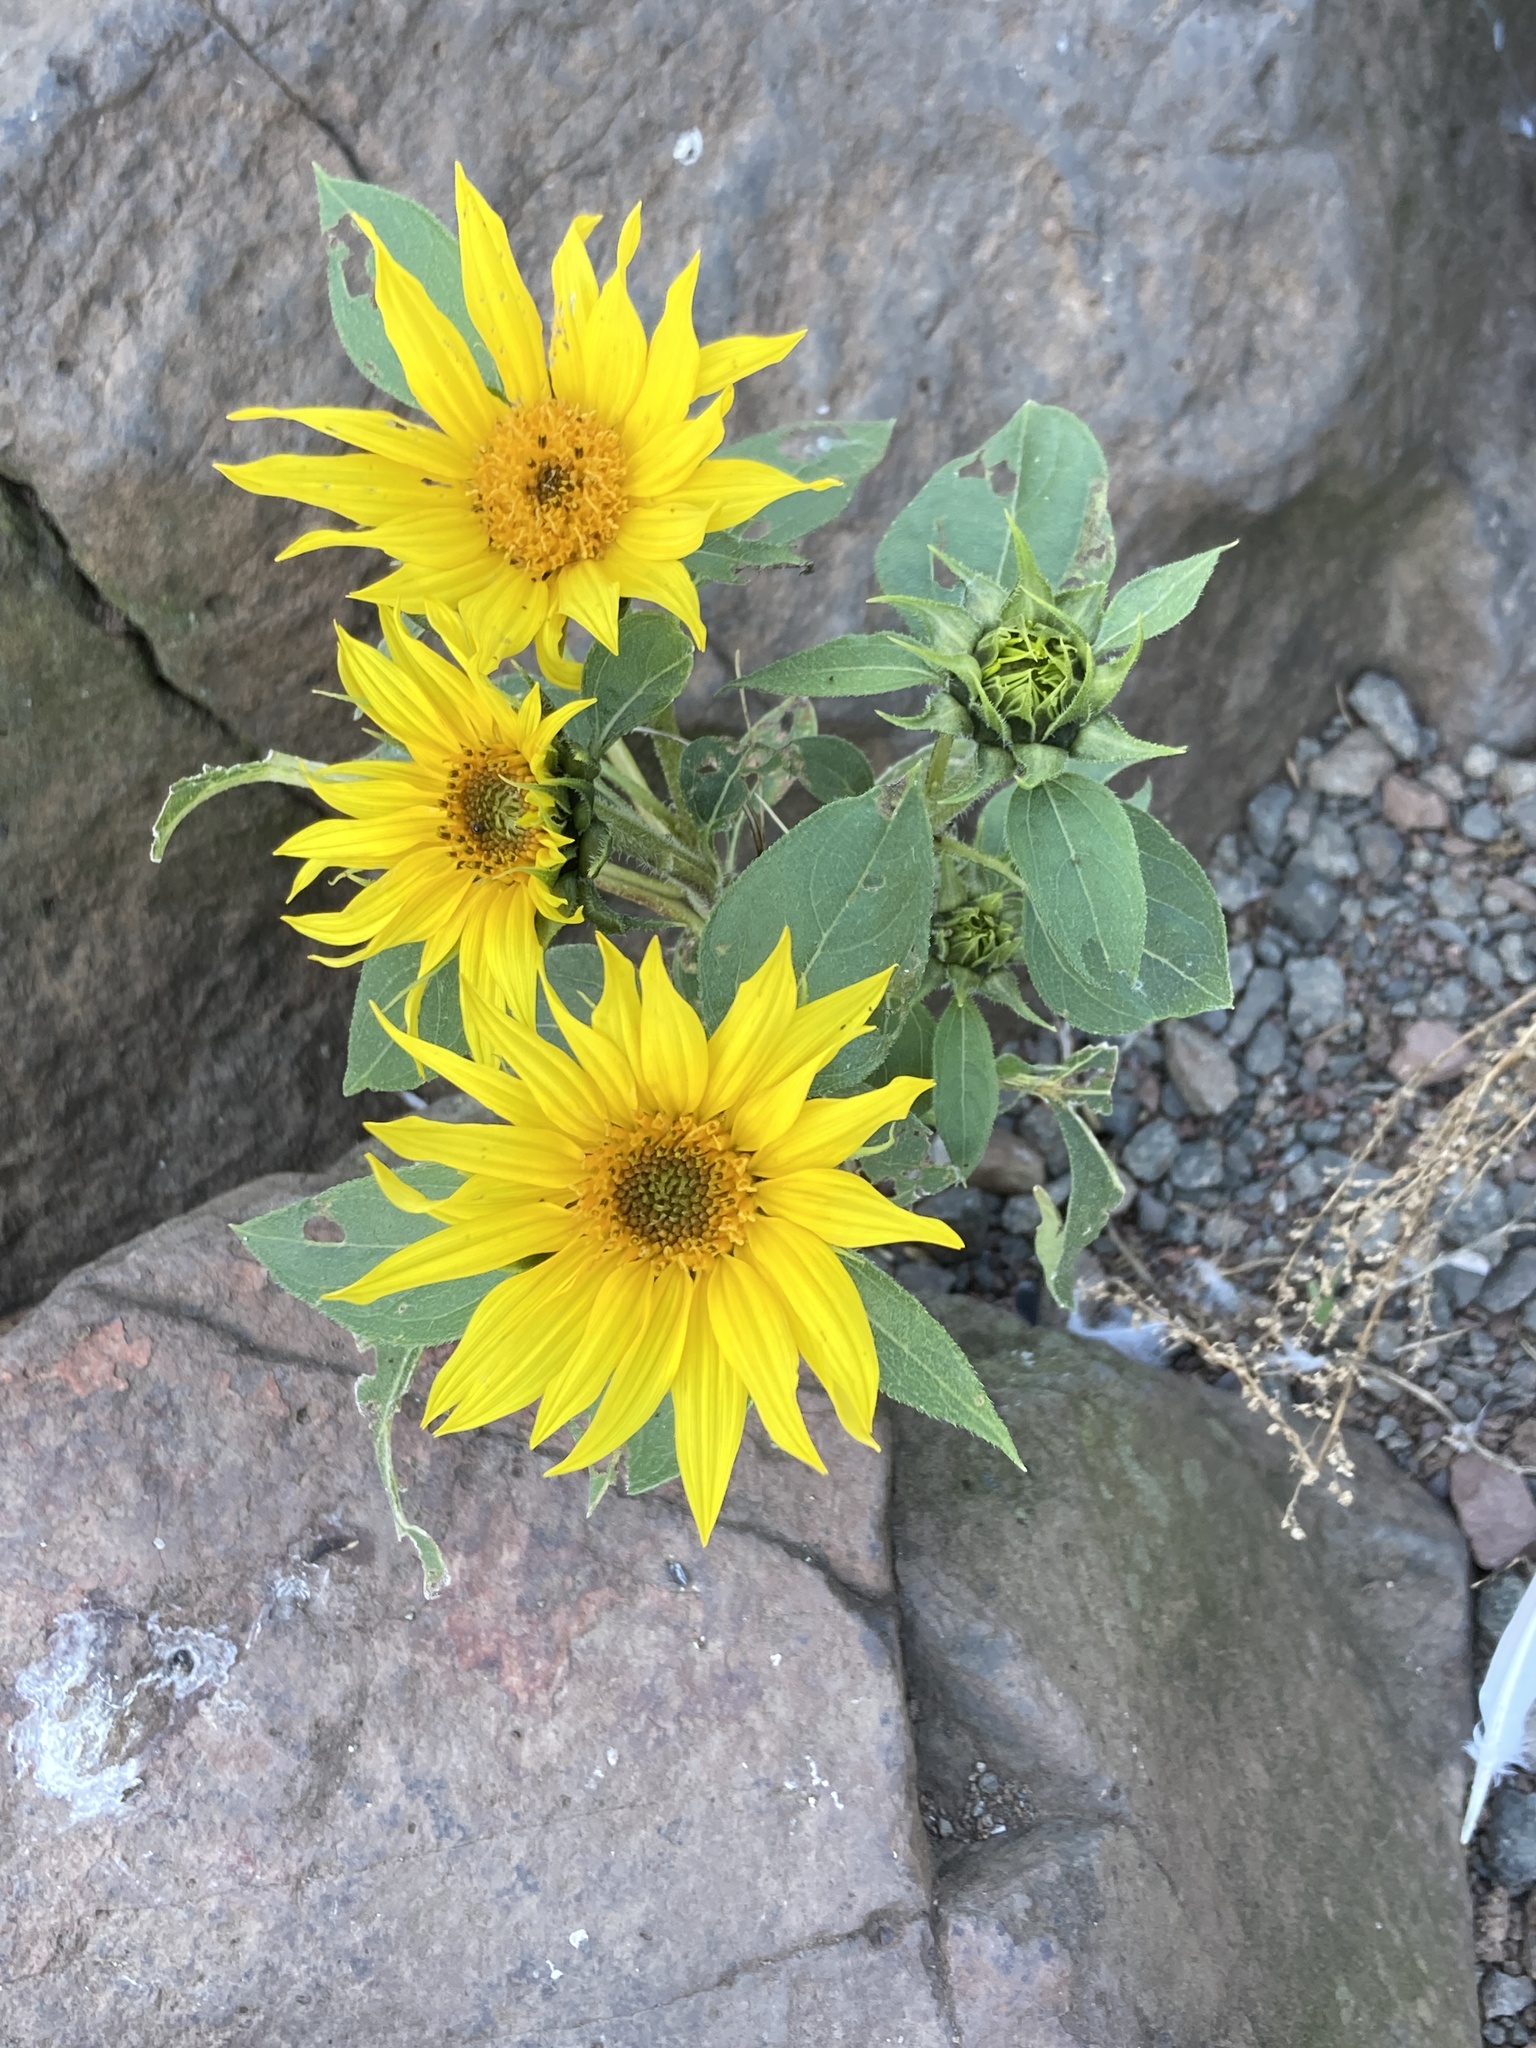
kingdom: Plantae
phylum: Tracheophyta
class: Magnoliopsida
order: Asterales
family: Asteraceae
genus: Helianthus
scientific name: Helianthus annuus
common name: Sunflower
